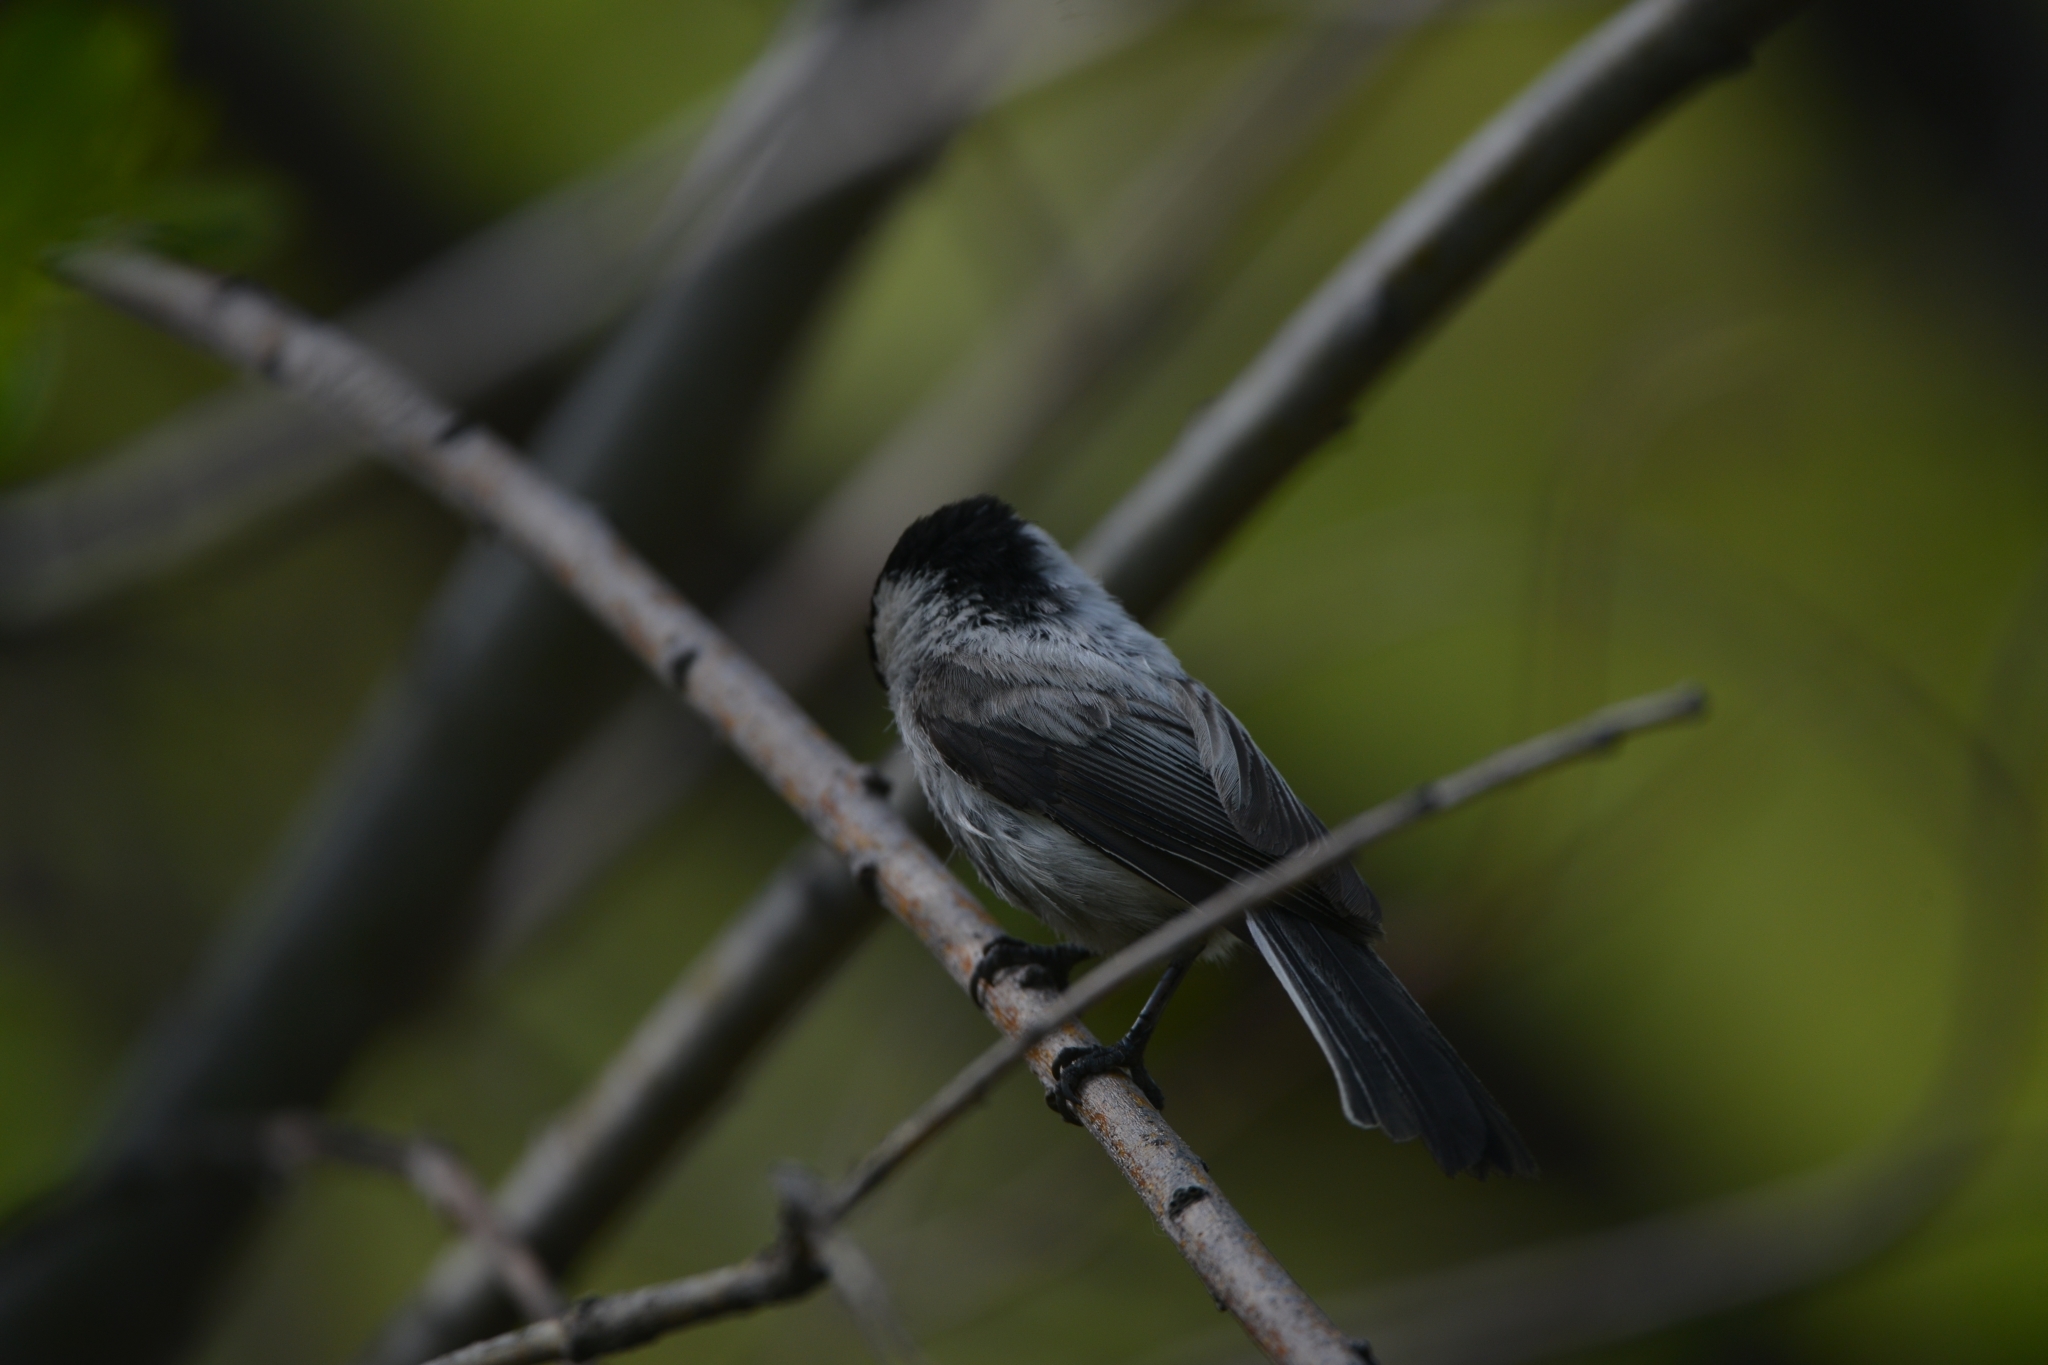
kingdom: Animalia
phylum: Chordata
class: Aves
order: Passeriformes
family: Paridae
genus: Poecile
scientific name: Poecile montanus
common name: Willow tit
